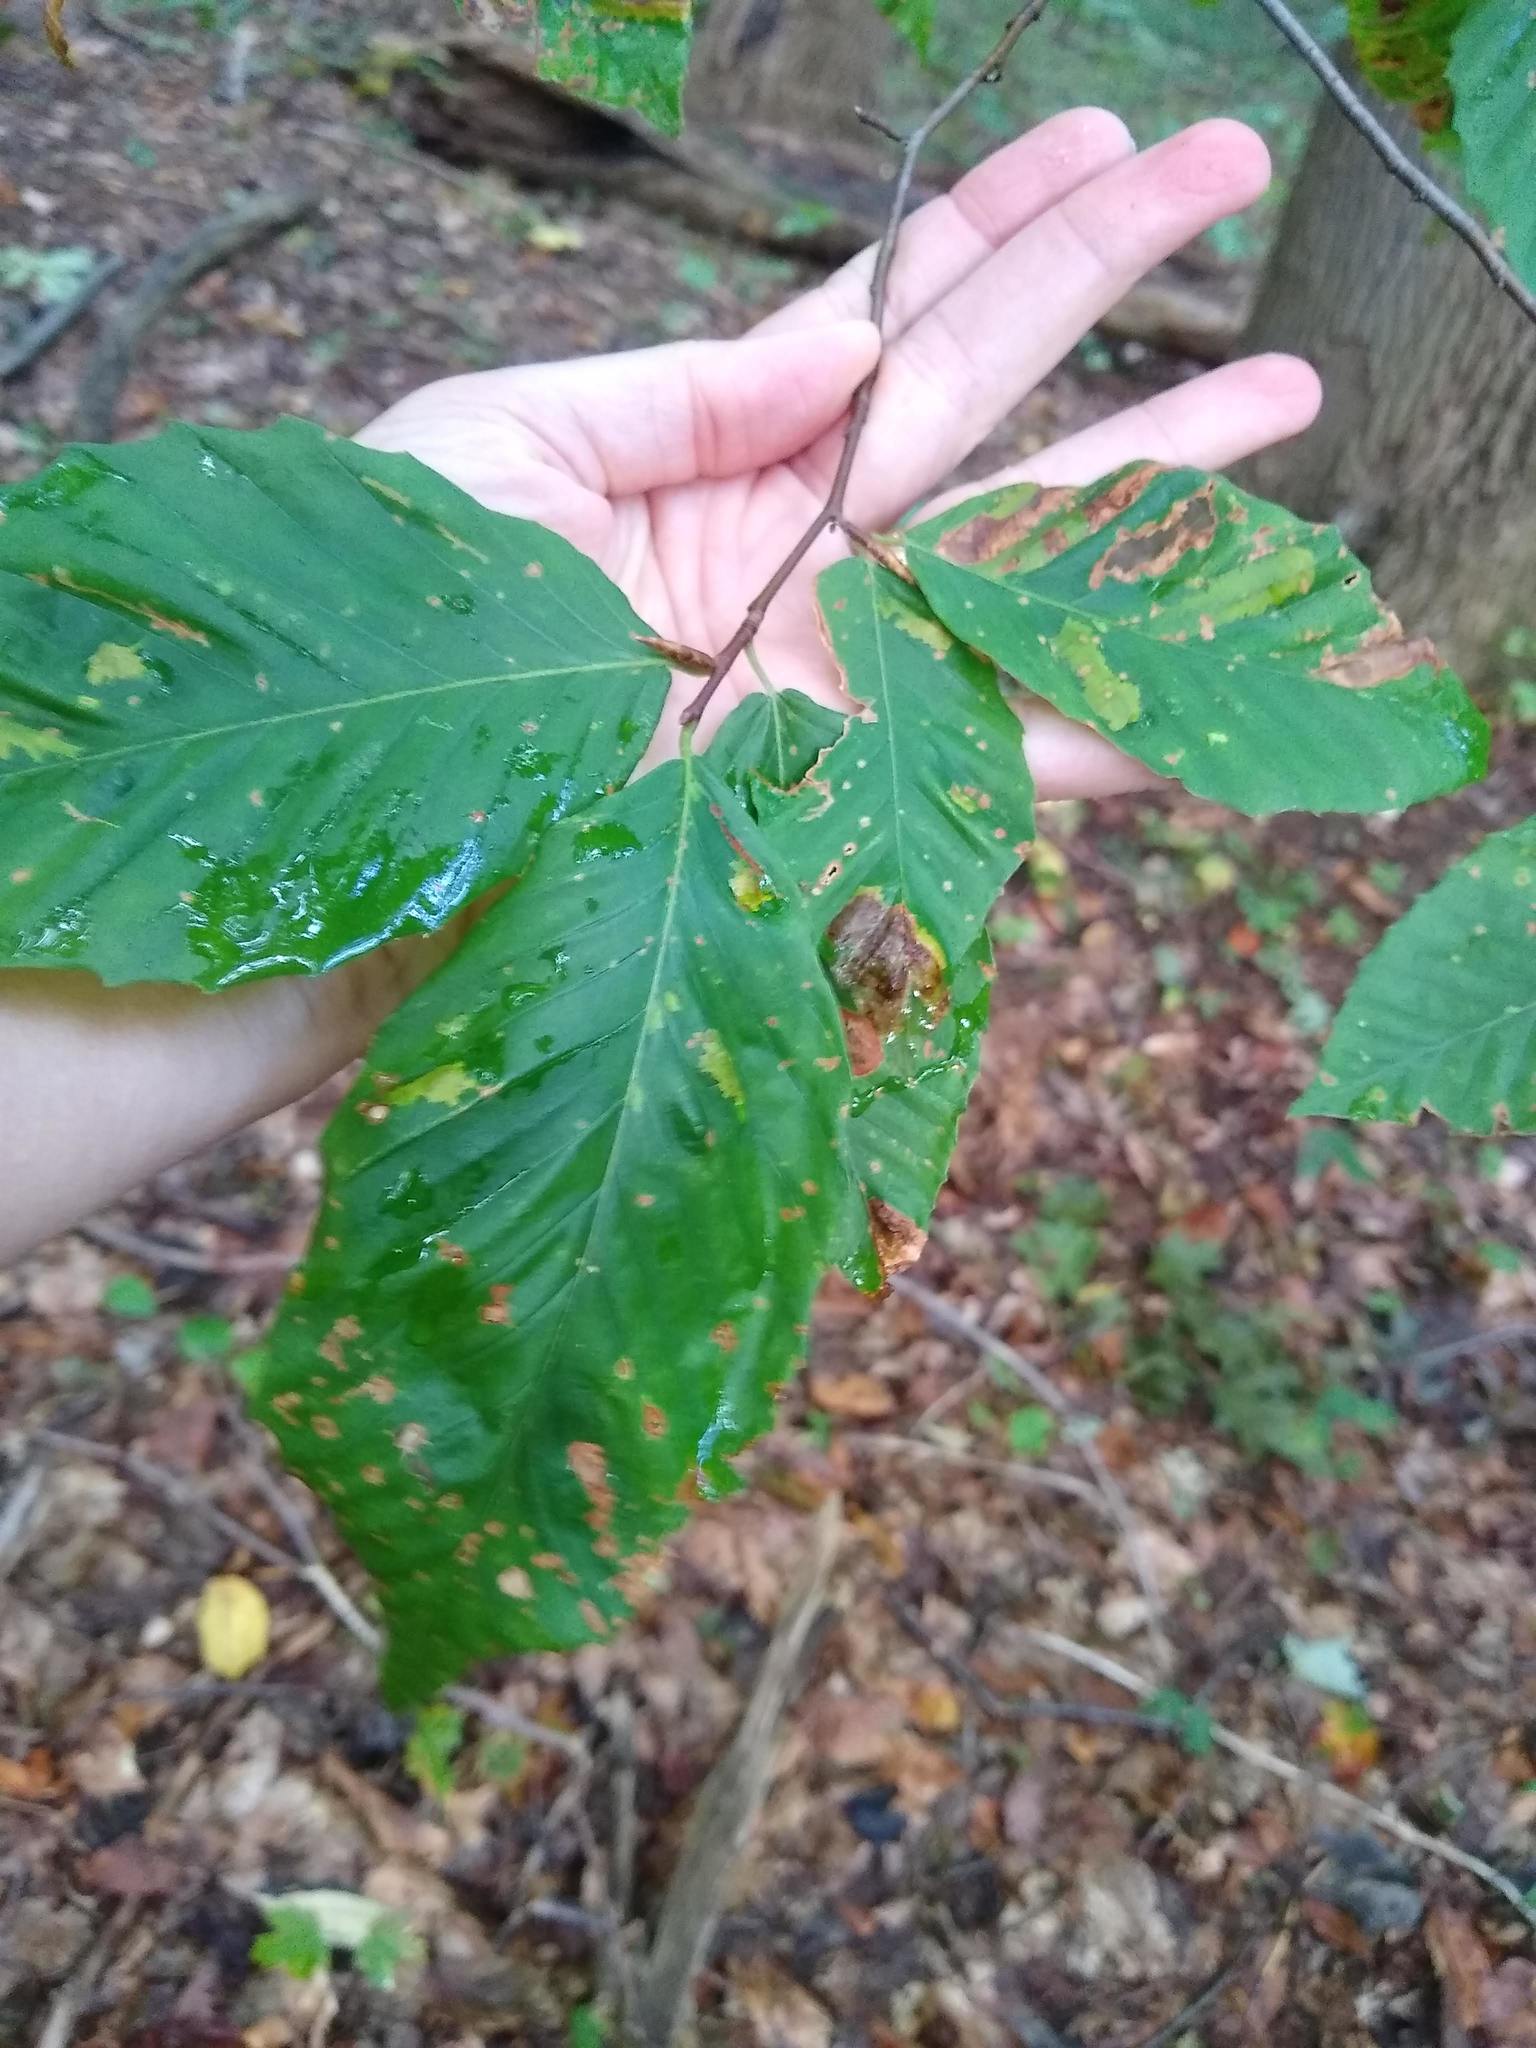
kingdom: Plantae
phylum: Tracheophyta
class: Magnoliopsida
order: Fagales
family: Fagaceae
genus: Fagus
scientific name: Fagus grandifolia
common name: American beech
